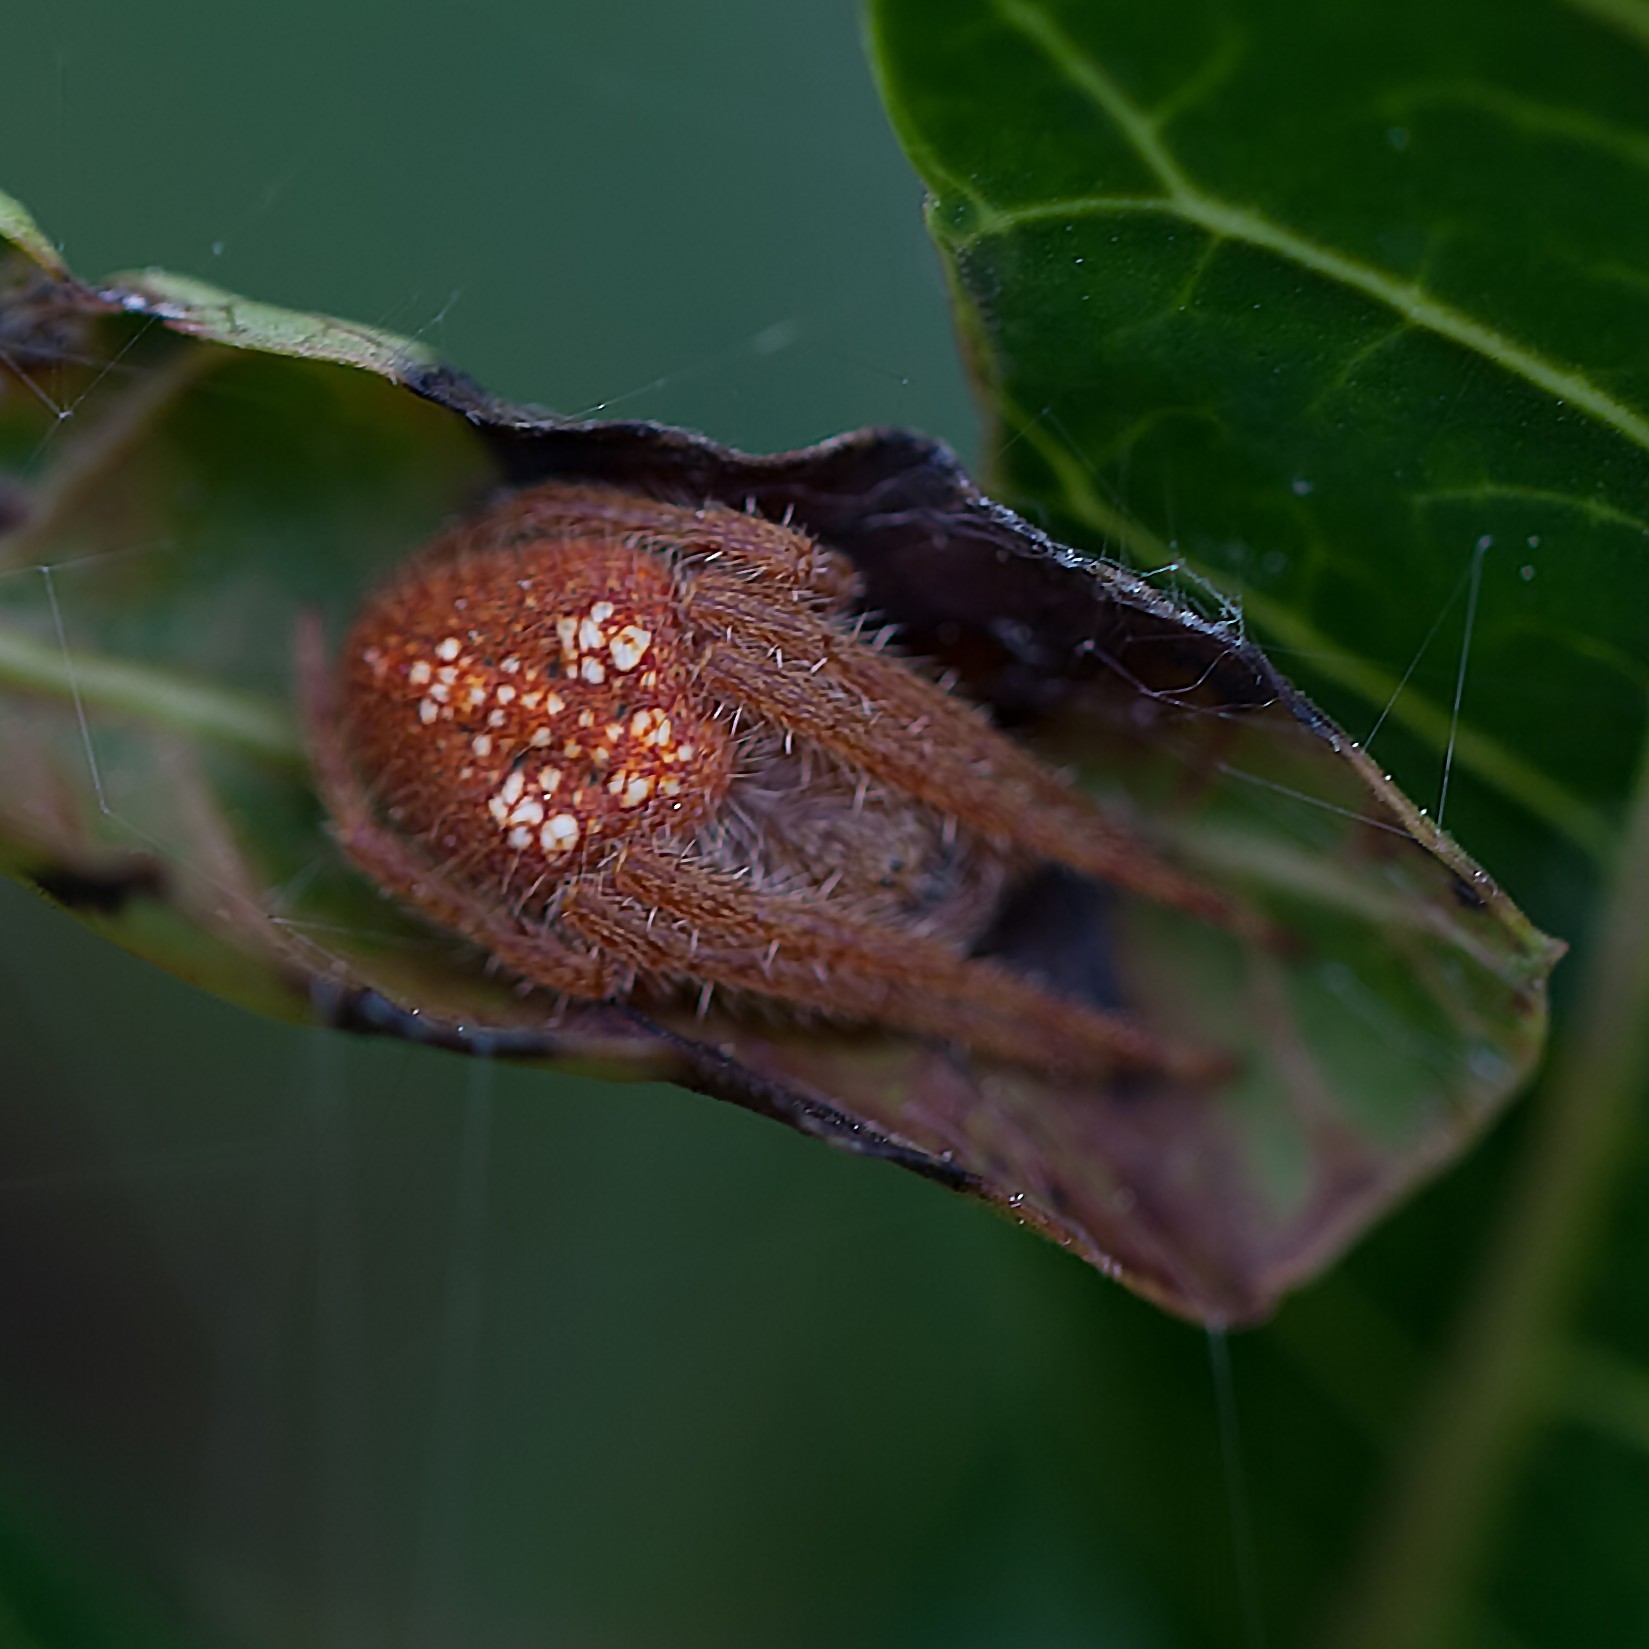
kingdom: Animalia
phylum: Arthropoda
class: Arachnida
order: Araneae
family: Araneidae
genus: Eriophora
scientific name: Eriophora ravilla
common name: Orb weavers
